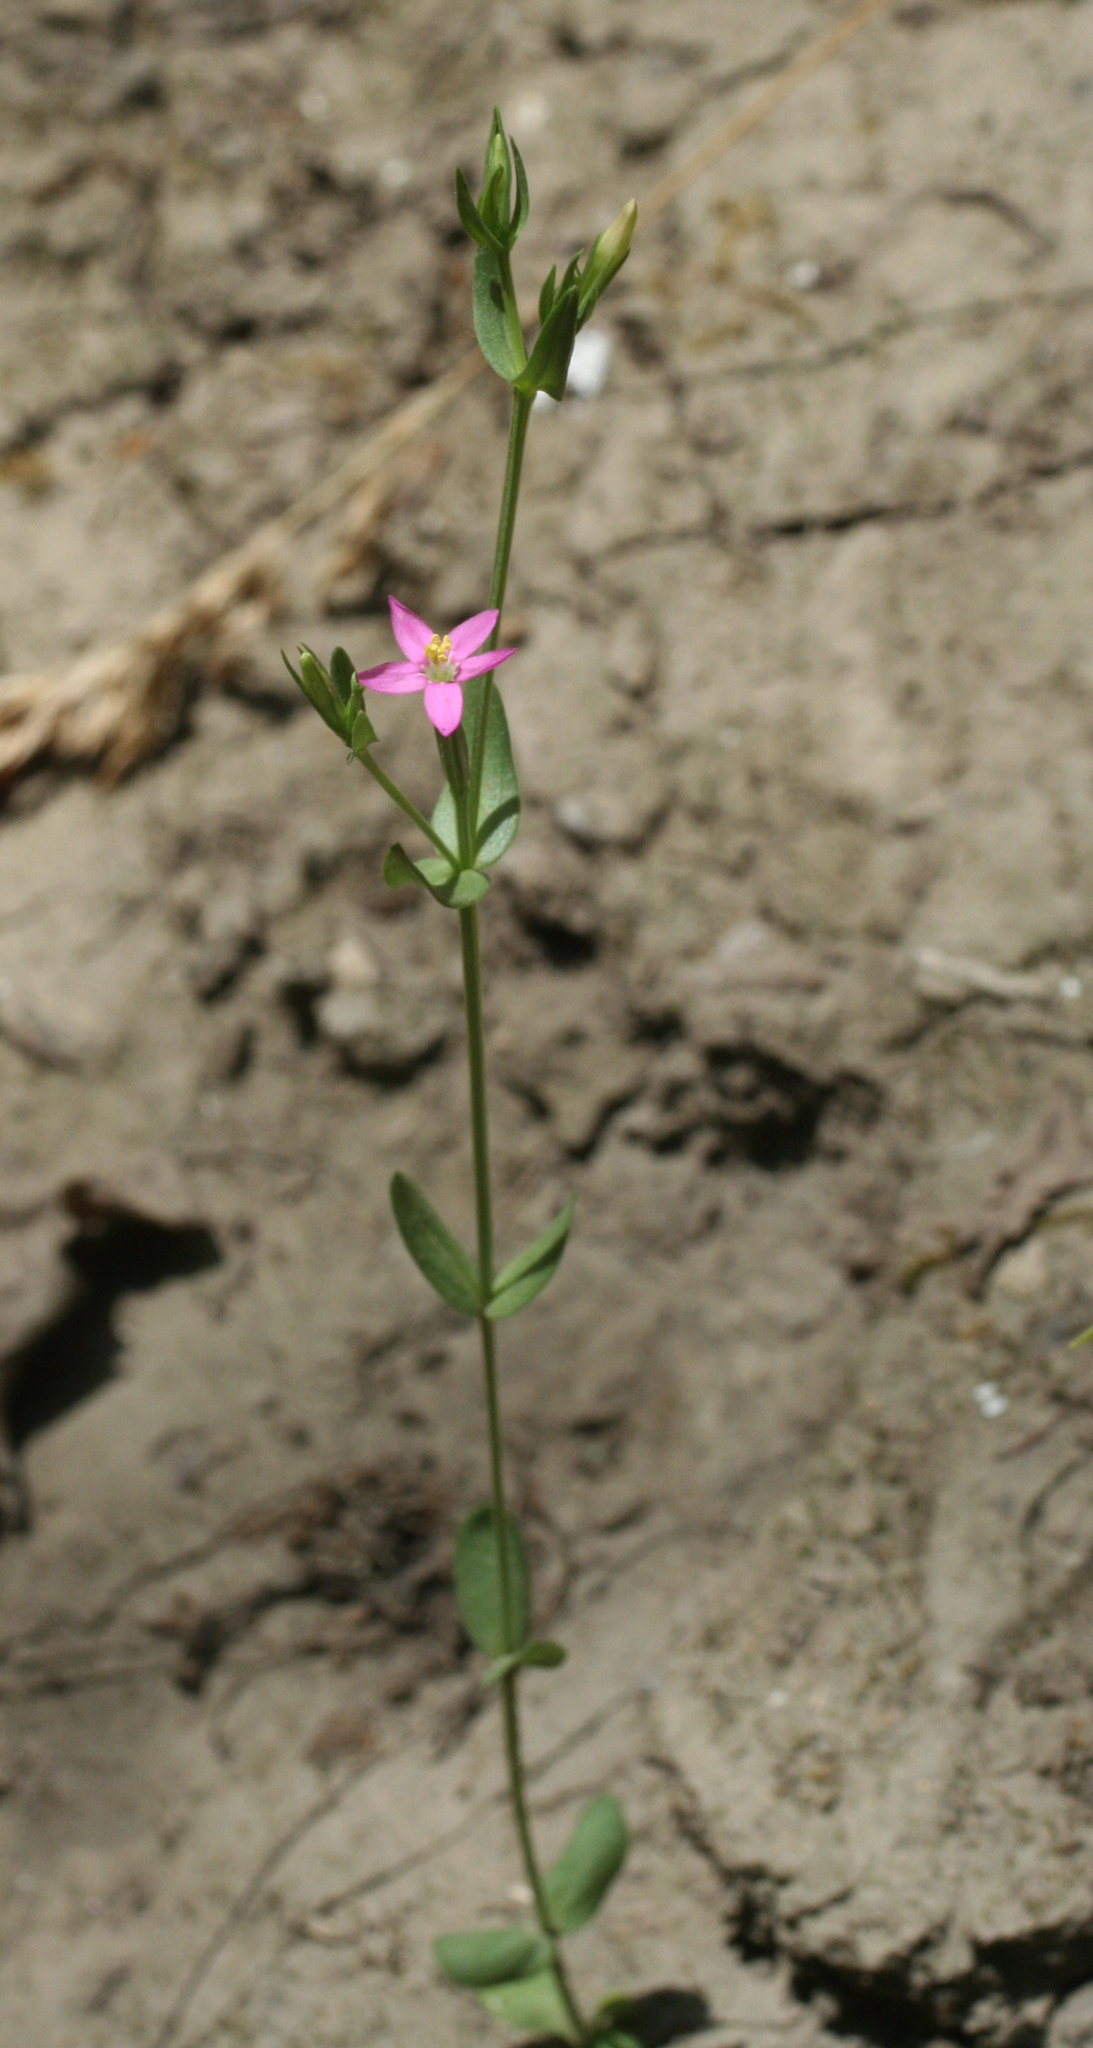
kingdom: Plantae
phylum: Tracheophyta
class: Magnoliopsida
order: Gentianales
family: Gentianaceae
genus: Centaurium
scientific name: Centaurium pulchellum
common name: Lesser centaury
